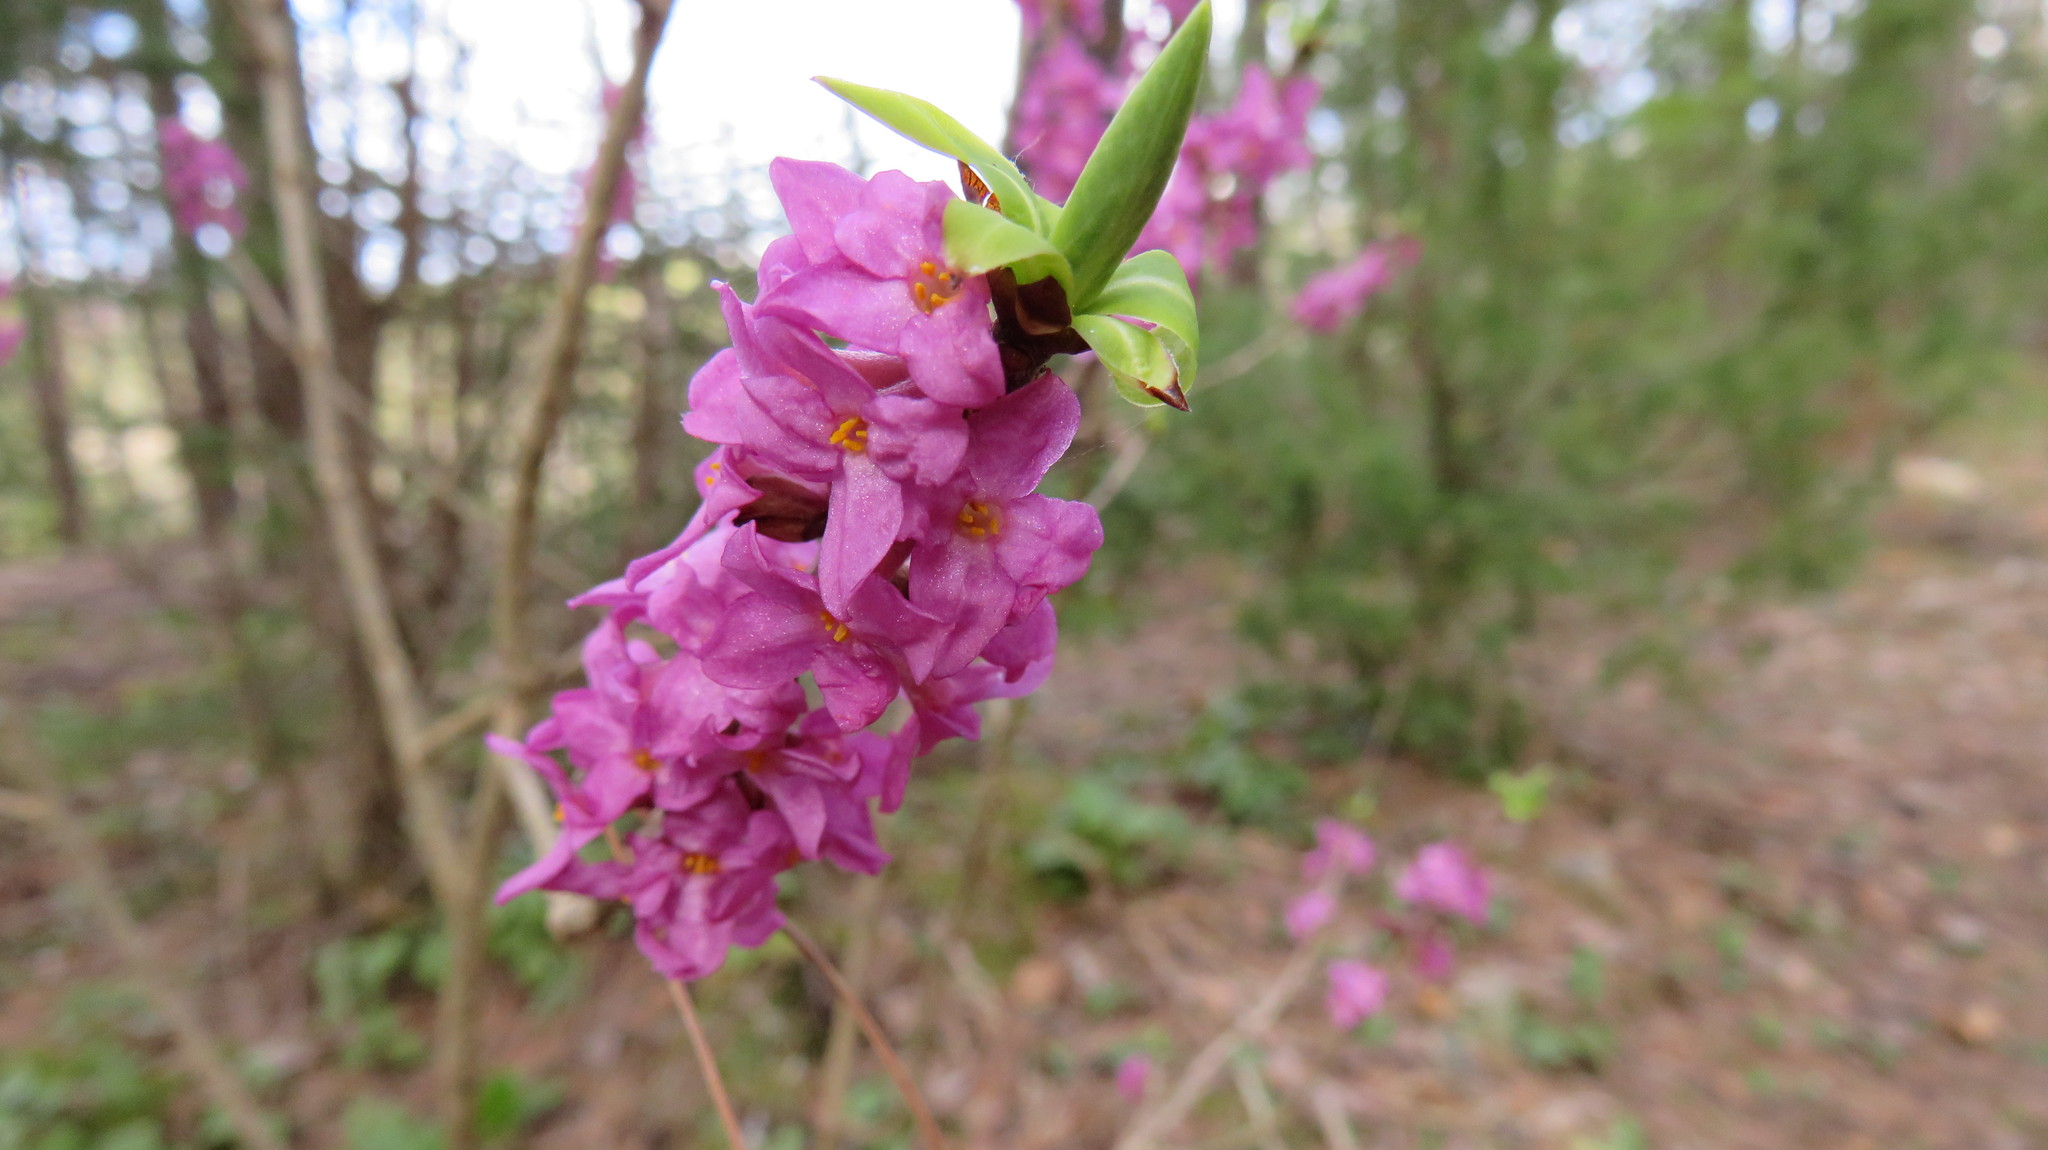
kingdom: Plantae
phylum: Tracheophyta
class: Magnoliopsida
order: Malvales
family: Thymelaeaceae
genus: Daphne
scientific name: Daphne mezereum
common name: Mezereon
